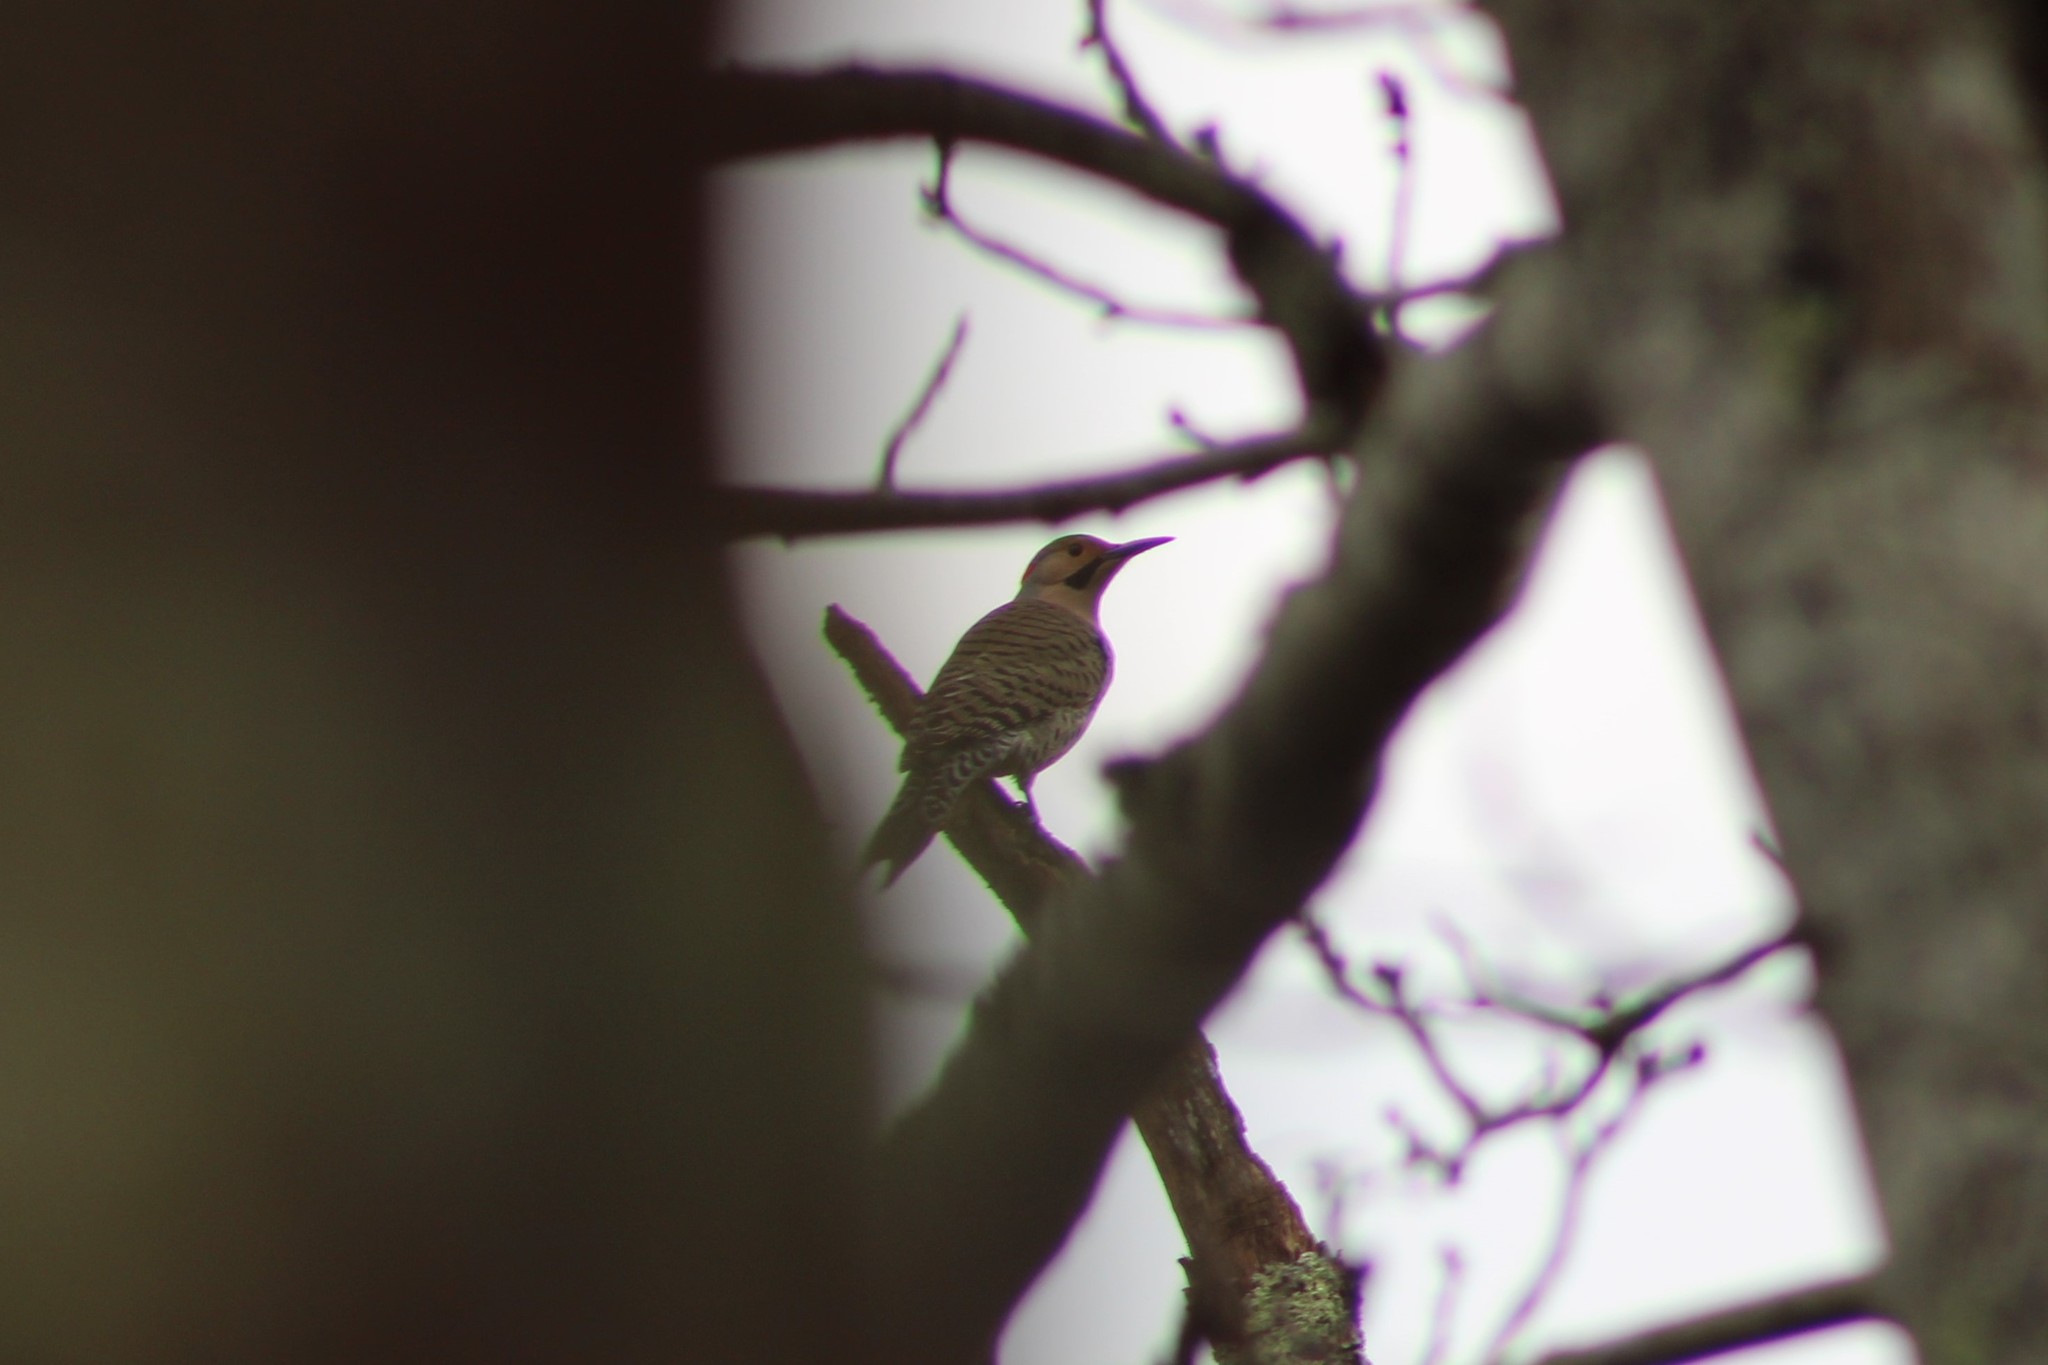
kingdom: Animalia
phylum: Chordata
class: Aves
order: Piciformes
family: Picidae
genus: Colaptes
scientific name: Colaptes auratus
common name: Northern flicker
